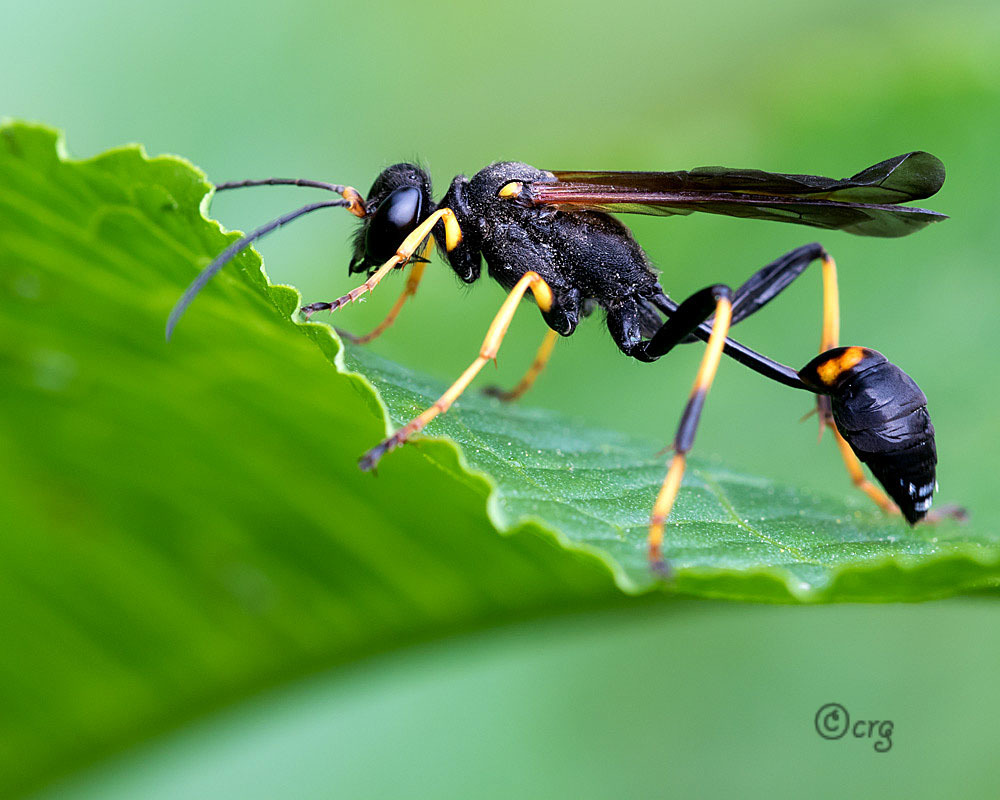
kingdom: Animalia
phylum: Arthropoda
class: Insecta
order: Hymenoptera
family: Sphecidae
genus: Sceliphron
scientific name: Sceliphron caementarium
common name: Mud dauber
